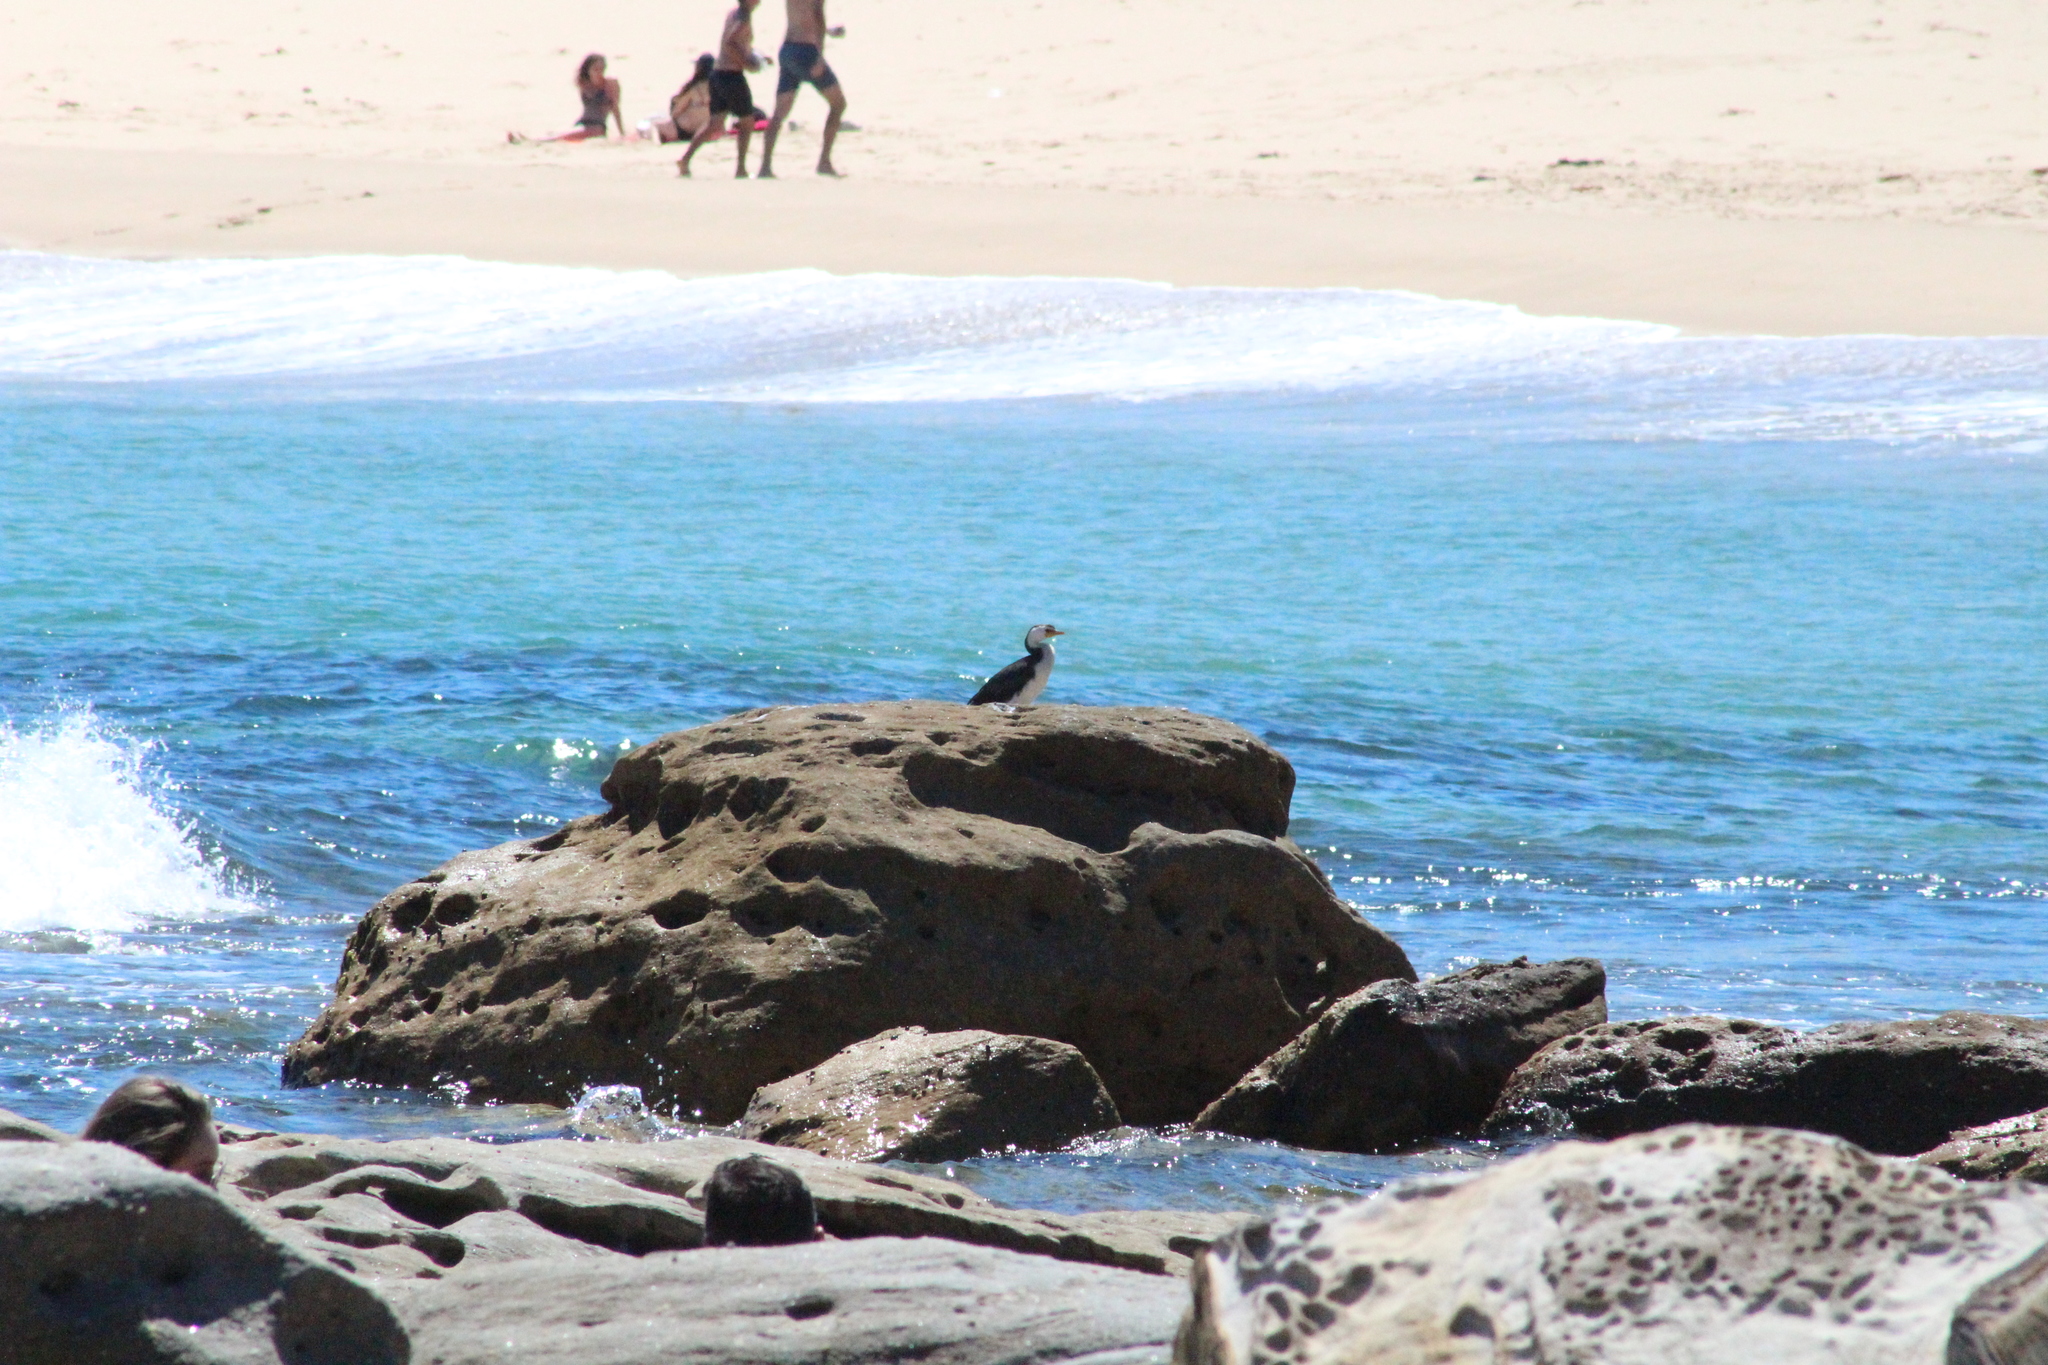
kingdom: Animalia
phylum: Chordata
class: Aves
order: Suliformes
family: Phalacrocoracidae
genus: Microcarbo
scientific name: Microcarbo melanoleucos
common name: Little pied cormorant
